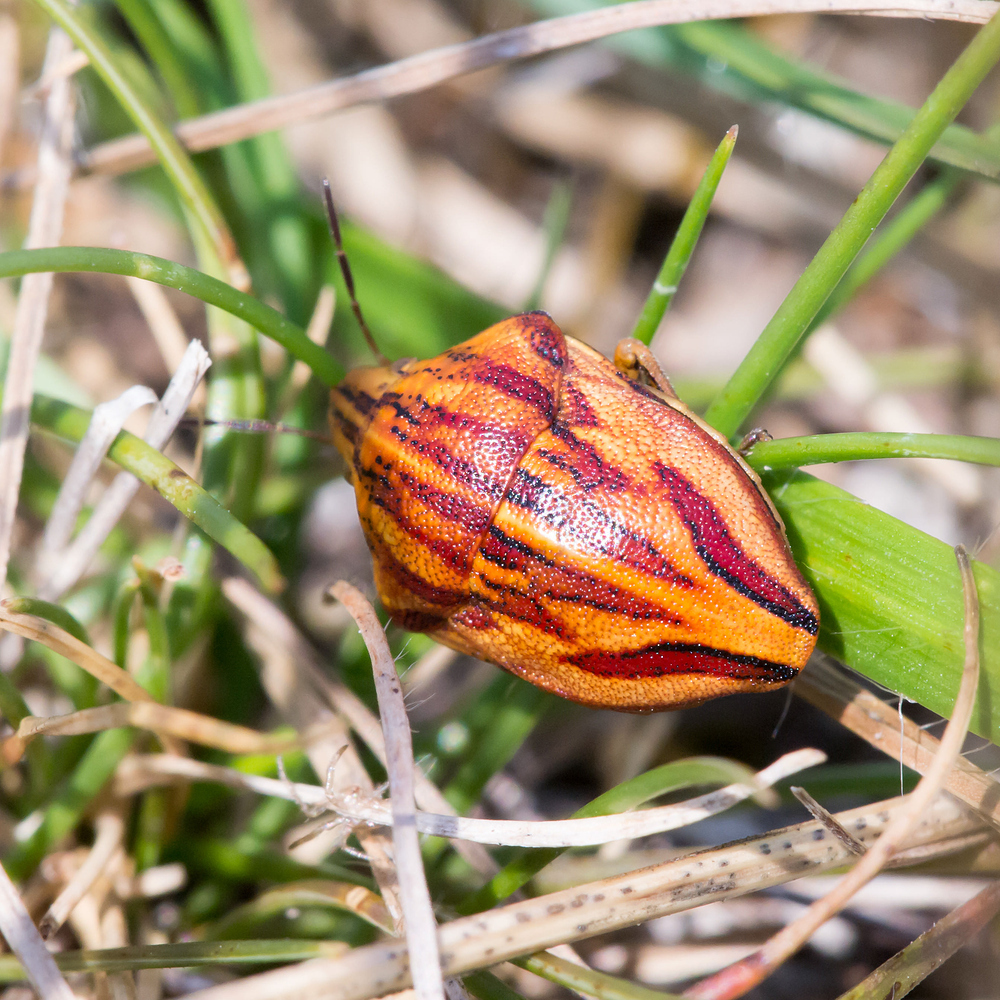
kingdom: Animalia
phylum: Arthropoda
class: Insecta
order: Hemiptera
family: Scutelleridae
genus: Odontotarsus
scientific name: Odontotarsus purpureolineatus
